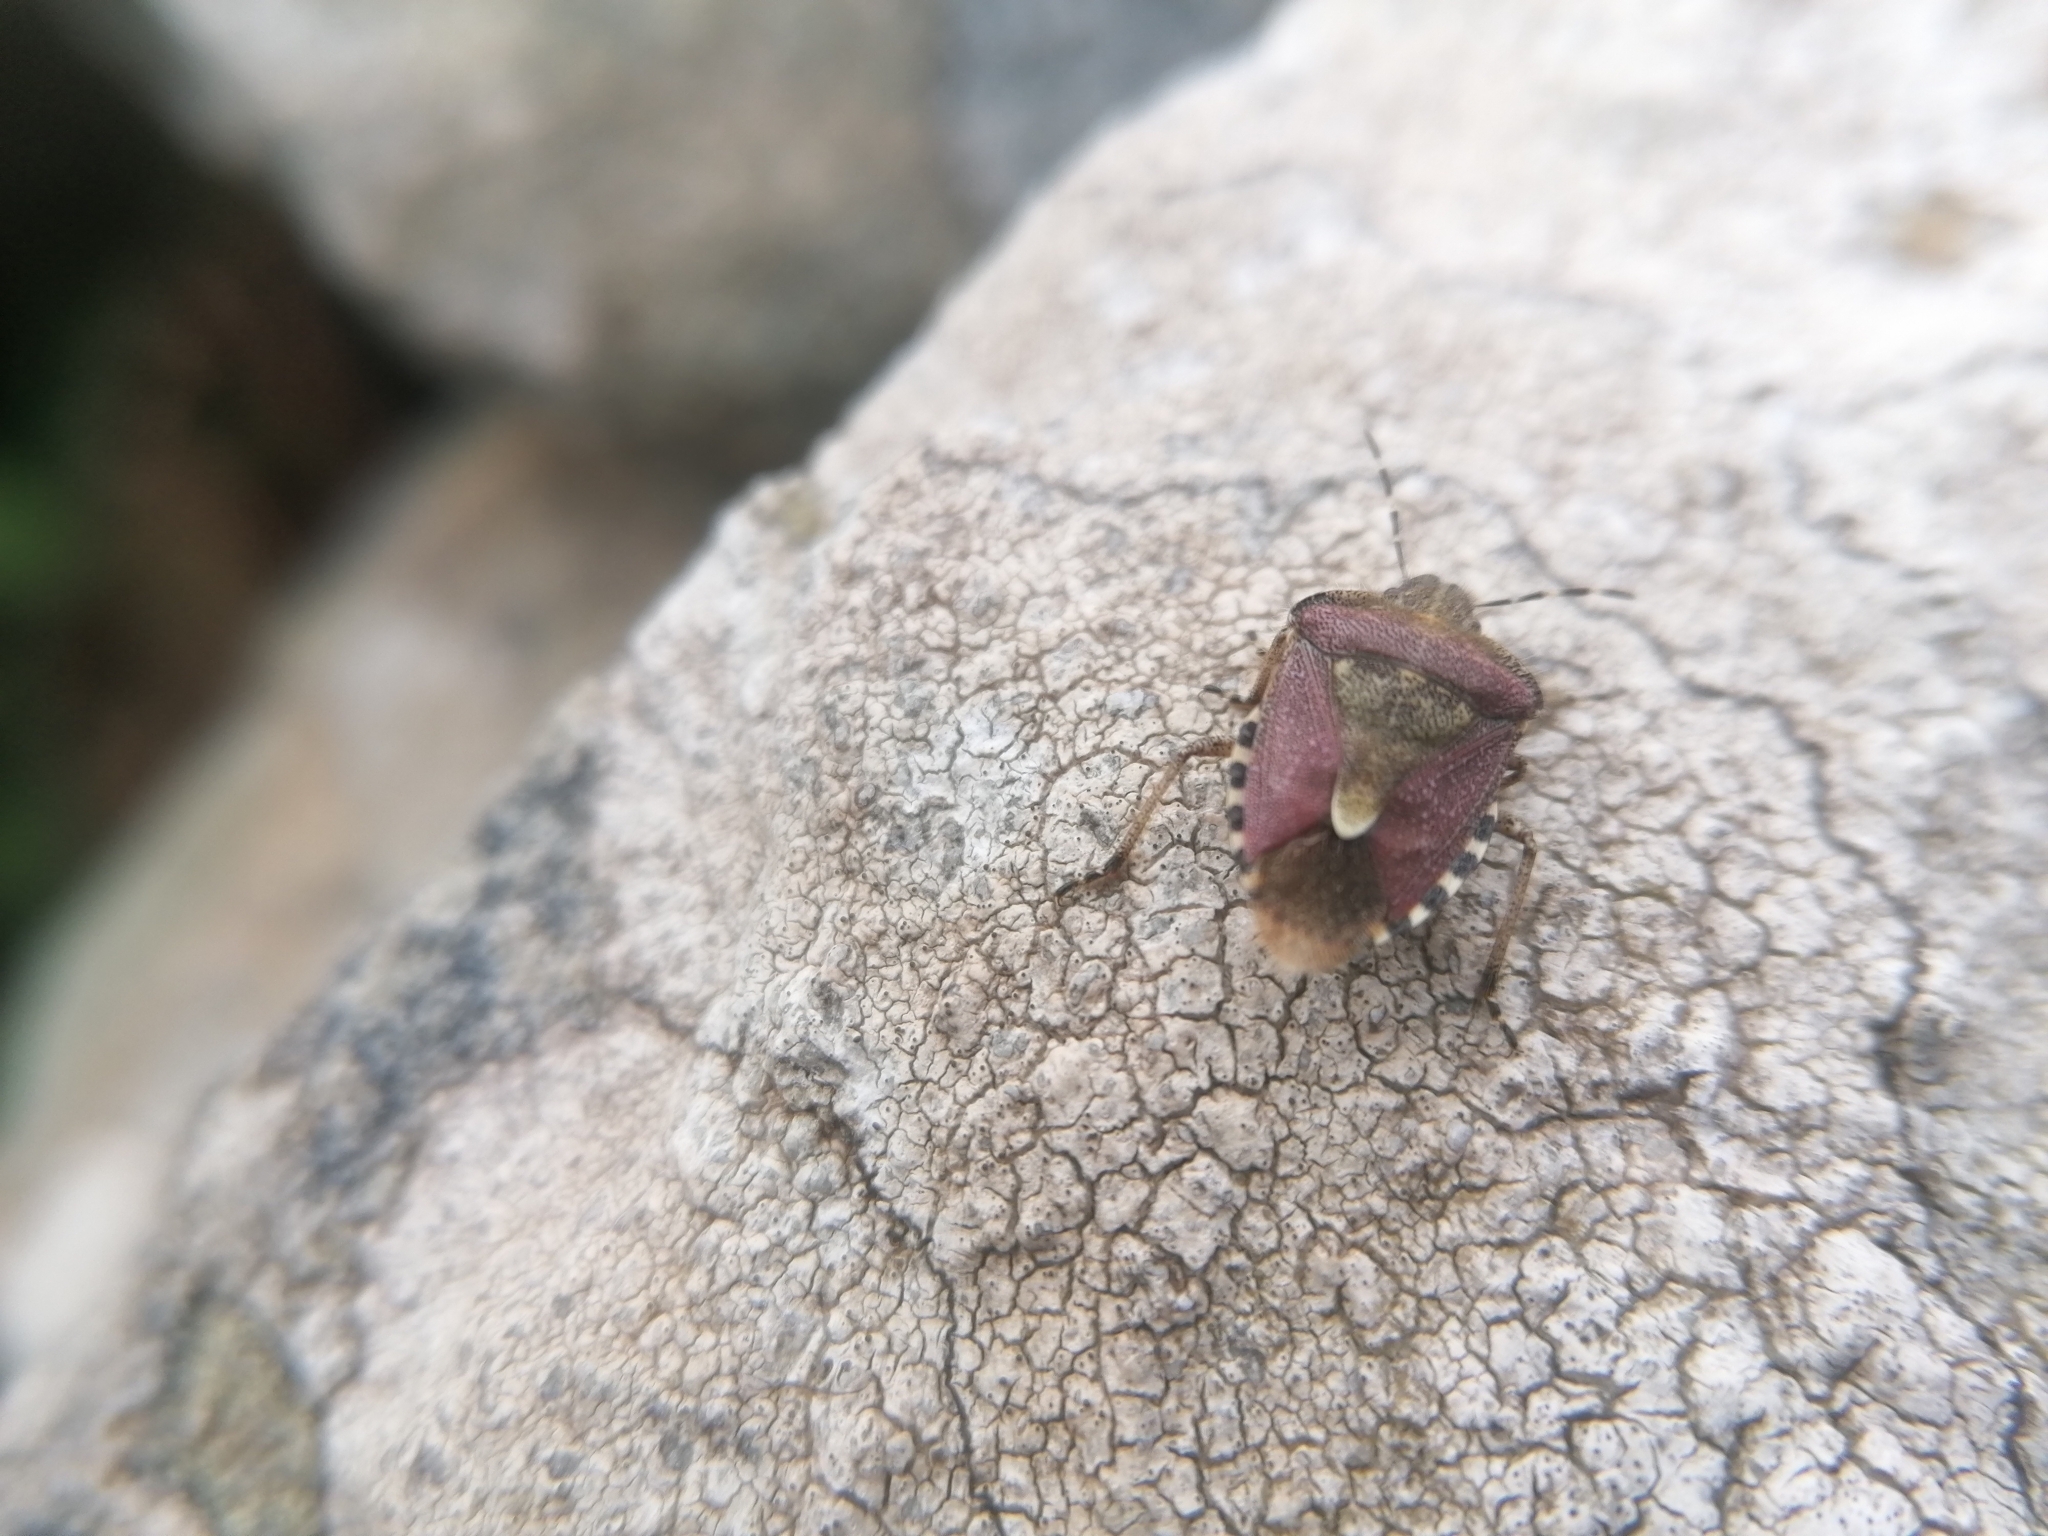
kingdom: Animalia
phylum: Arthropoda
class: Insecta
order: Hemiptera
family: Pentatomidae
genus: Dolycoris
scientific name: Dolycoris baccarum
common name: Sloe bug
